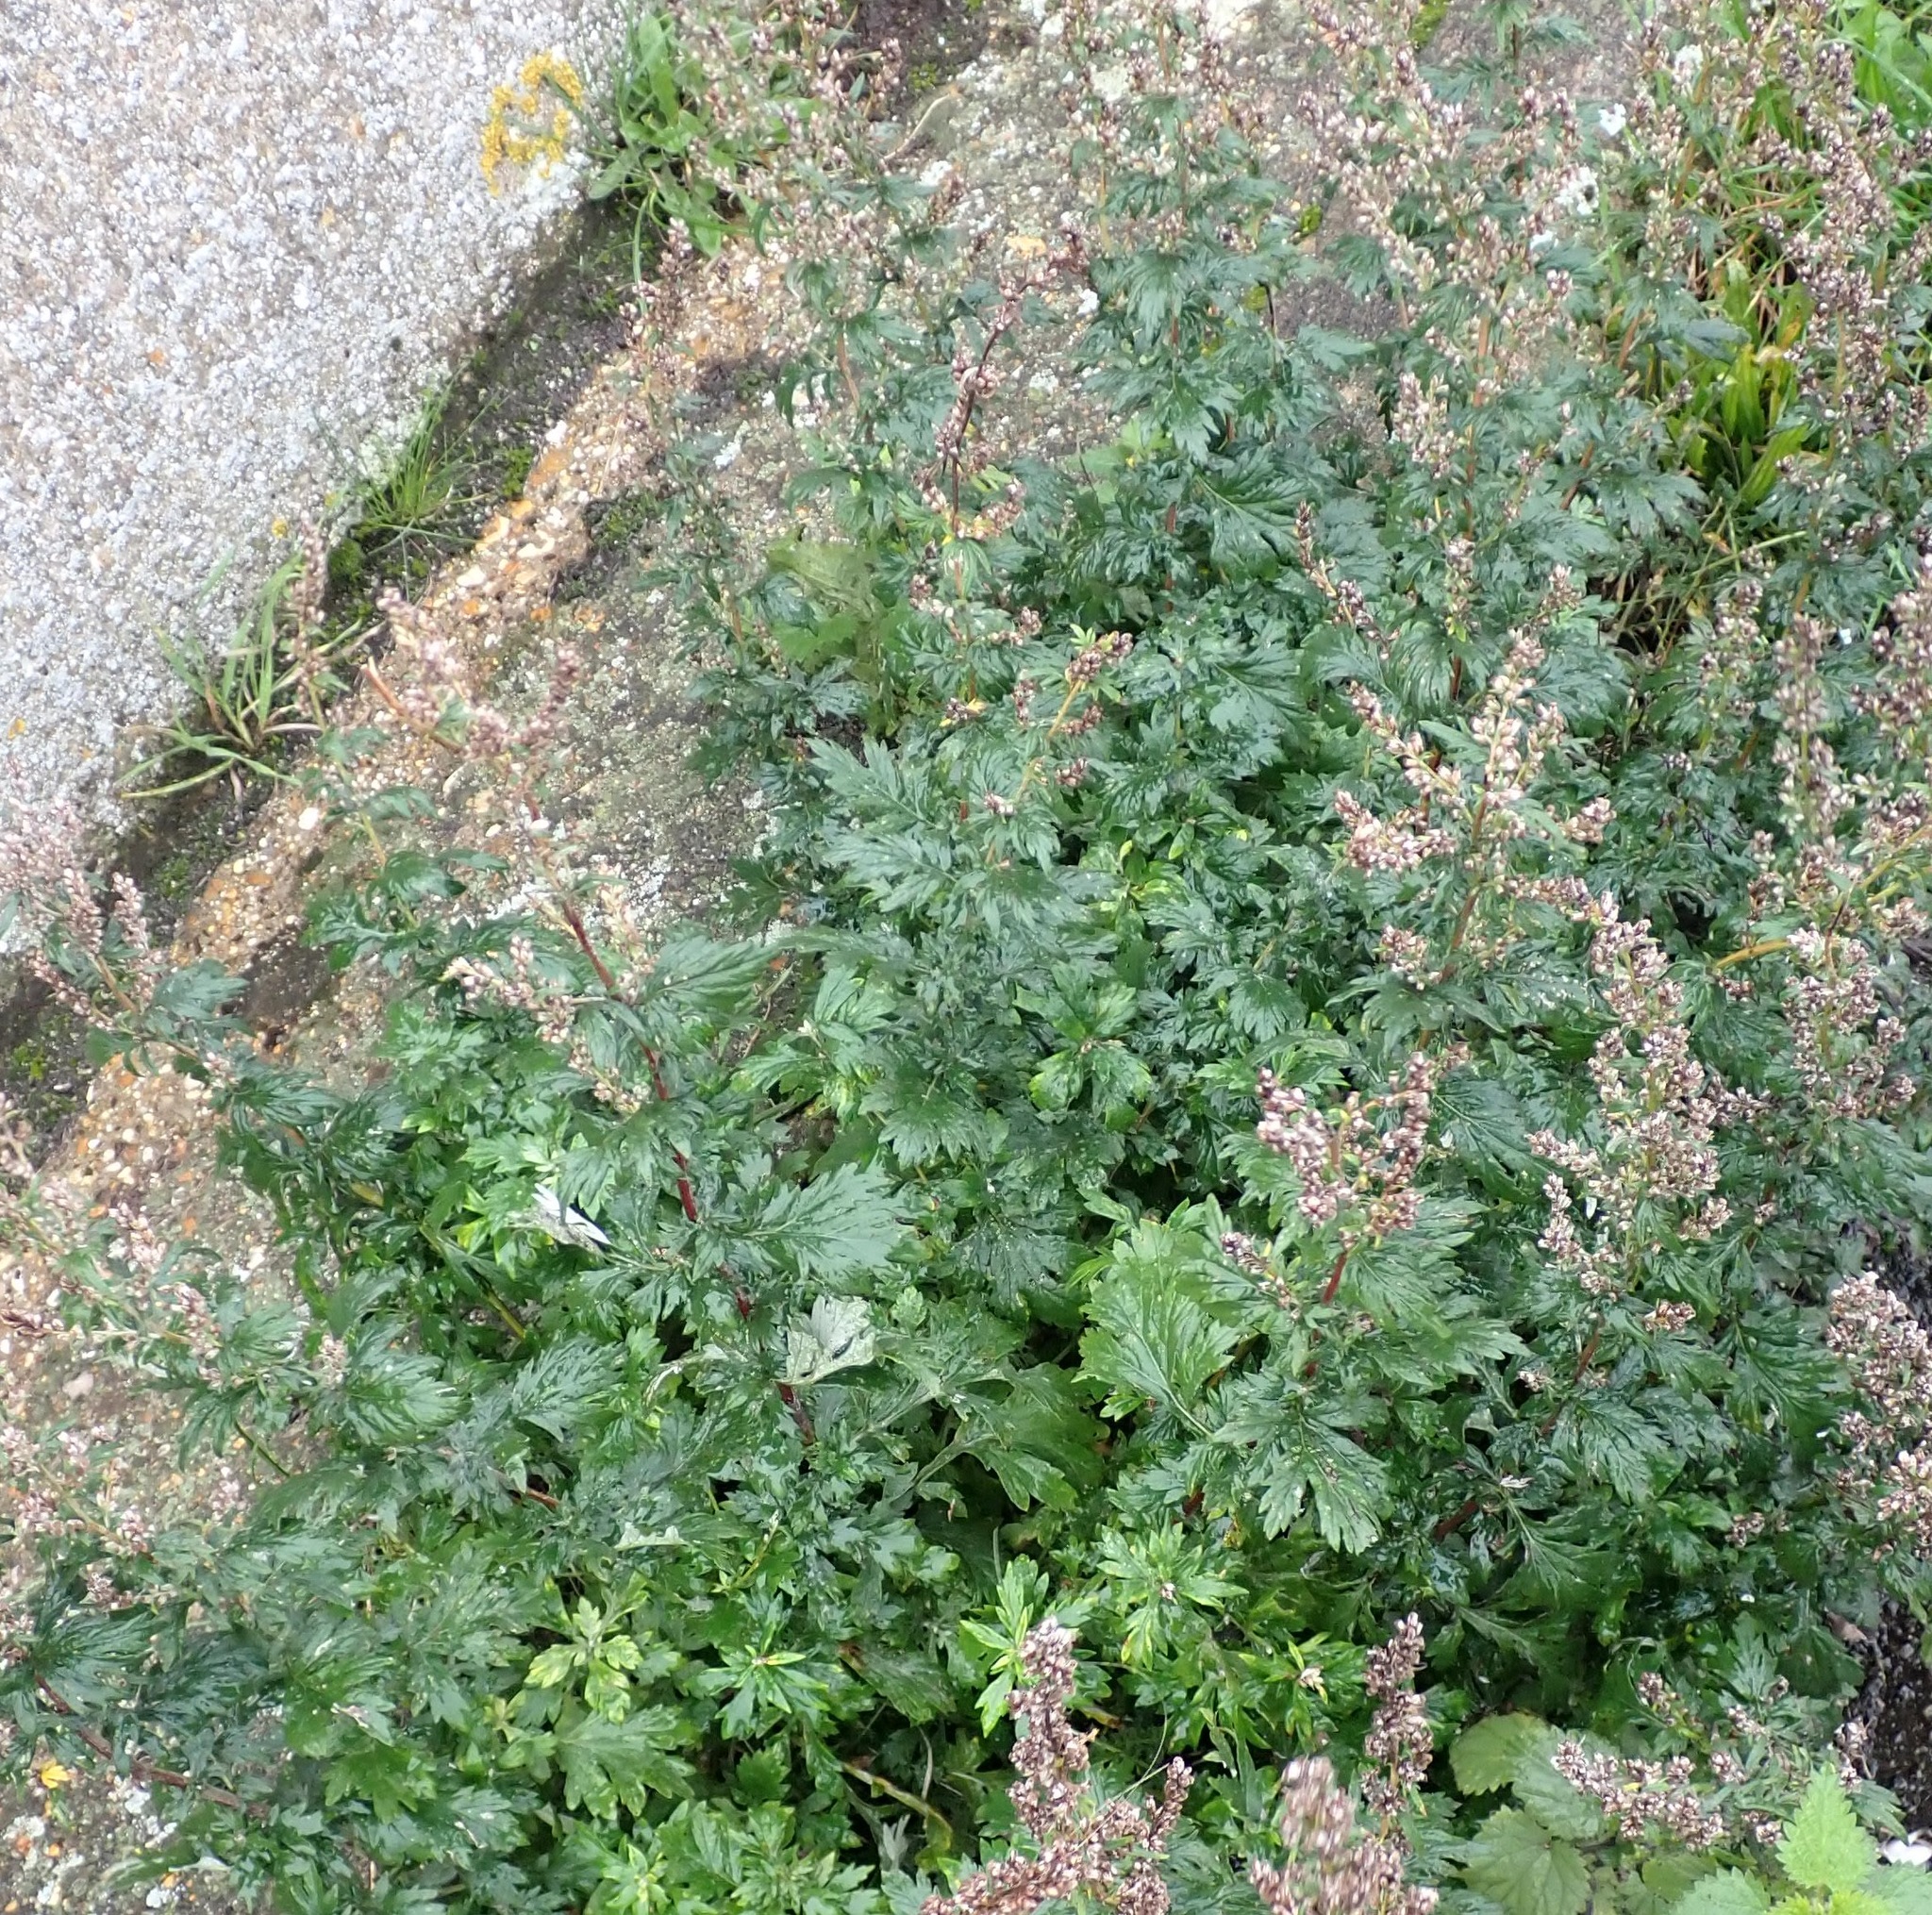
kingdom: Plantae
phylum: Tracheophyta
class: Magnoliopsida
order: Asterales
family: Asteraceae
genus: Artemisia
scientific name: Artemisia vulgaris
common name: Mugwort
